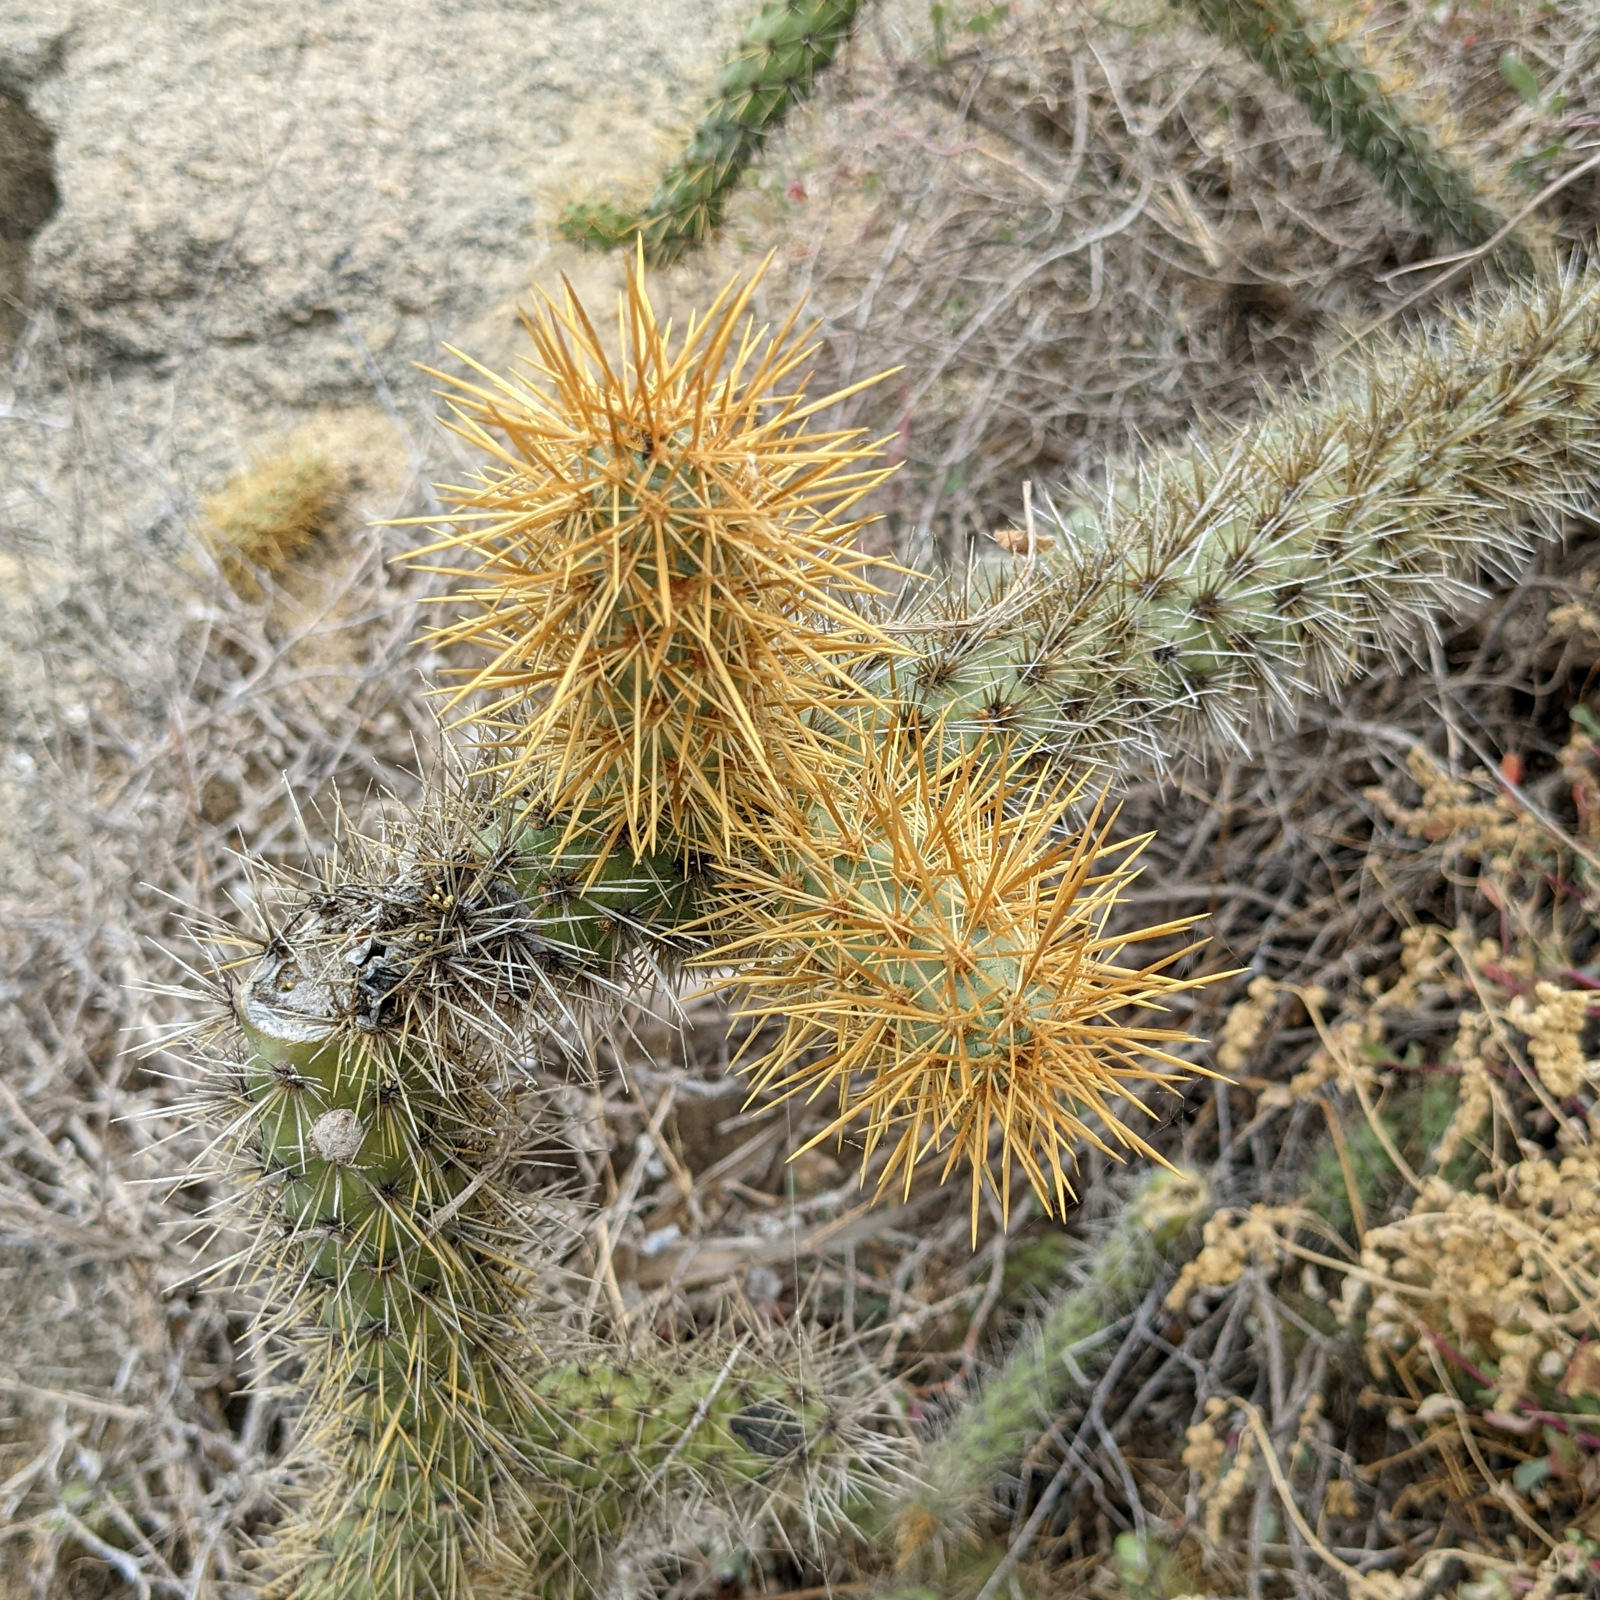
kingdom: Plantae
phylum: Tracheophyta
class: Magnoliopsida
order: Caryophyllales
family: Cactaceae
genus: Cylindropuntia
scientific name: Cylindropuntia alcahes
